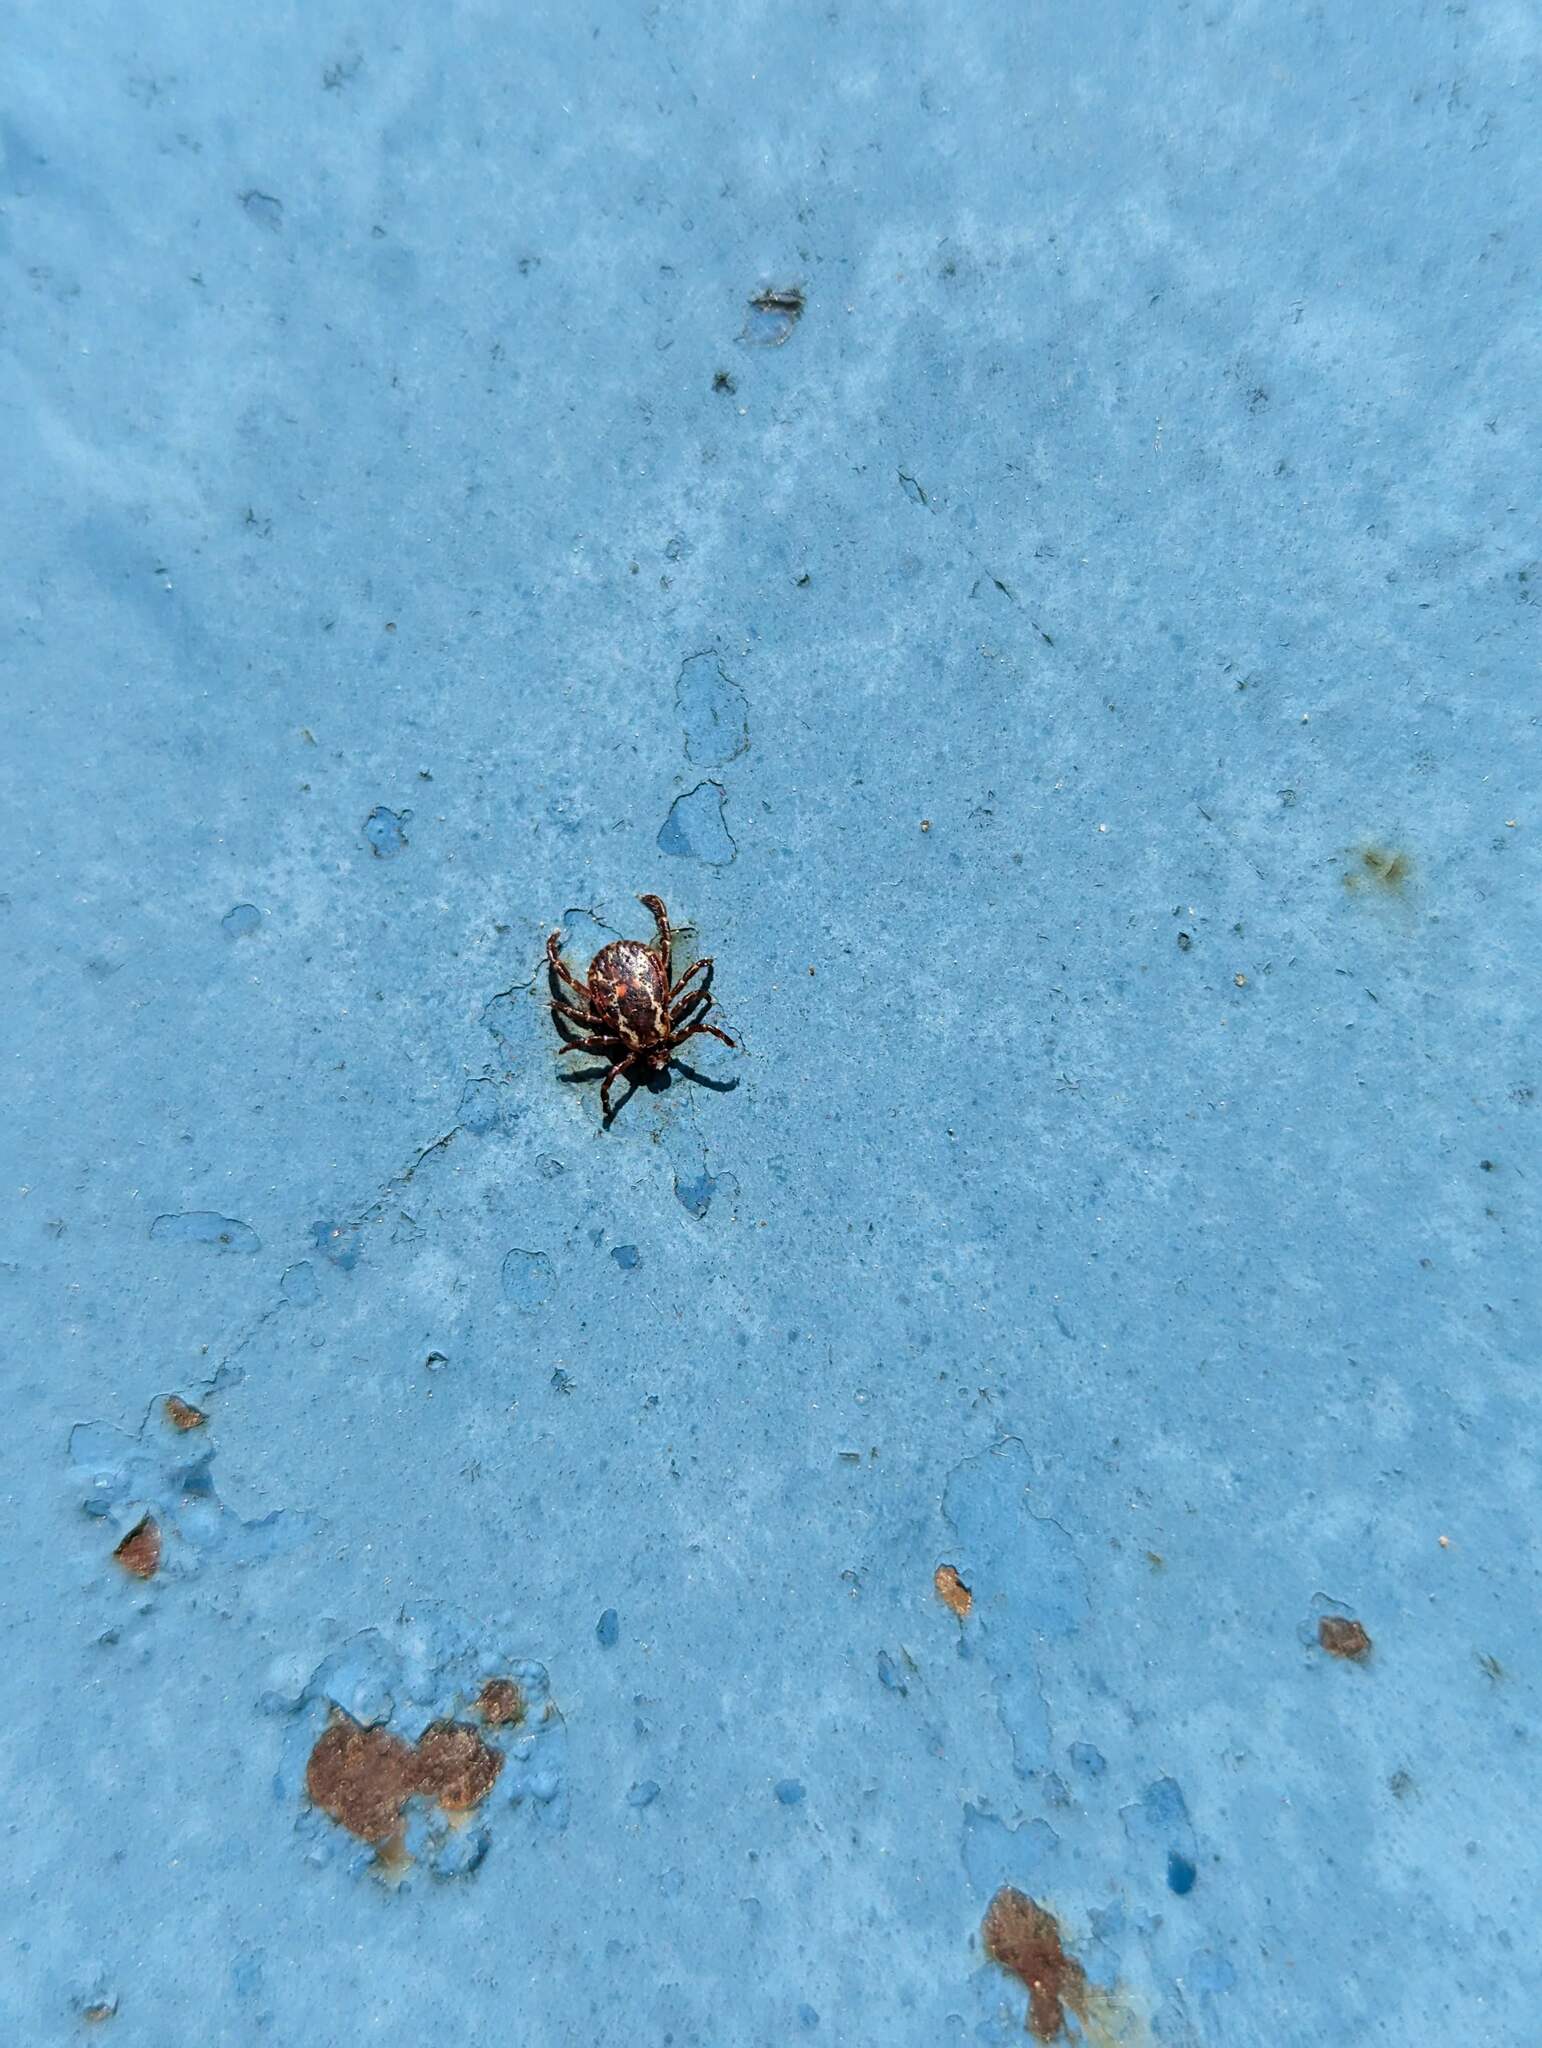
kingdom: Animalia
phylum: Arthropoda
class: Arachnida
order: Ixodida
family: Ixodidae
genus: Dermacentor
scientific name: Dermacentor variabilis
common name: American dog tick
